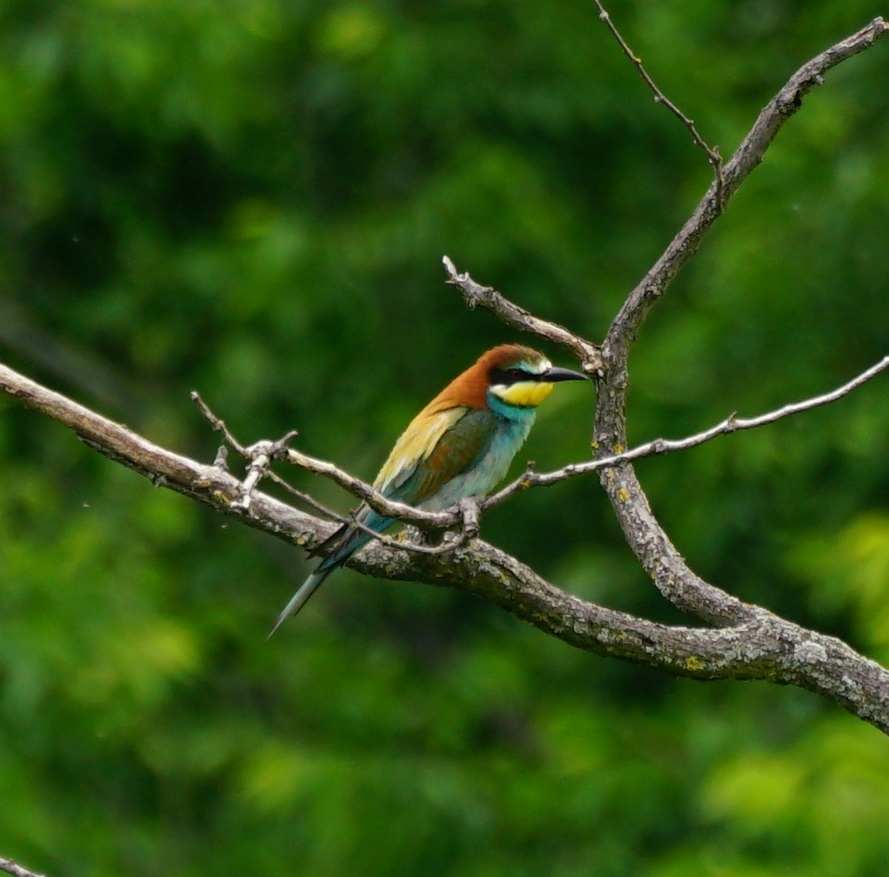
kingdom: Animalia
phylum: Chordata
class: Aves
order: Coraciiformes
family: Meropidae
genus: Merops
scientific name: Merops apiaster
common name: European bee-eater
